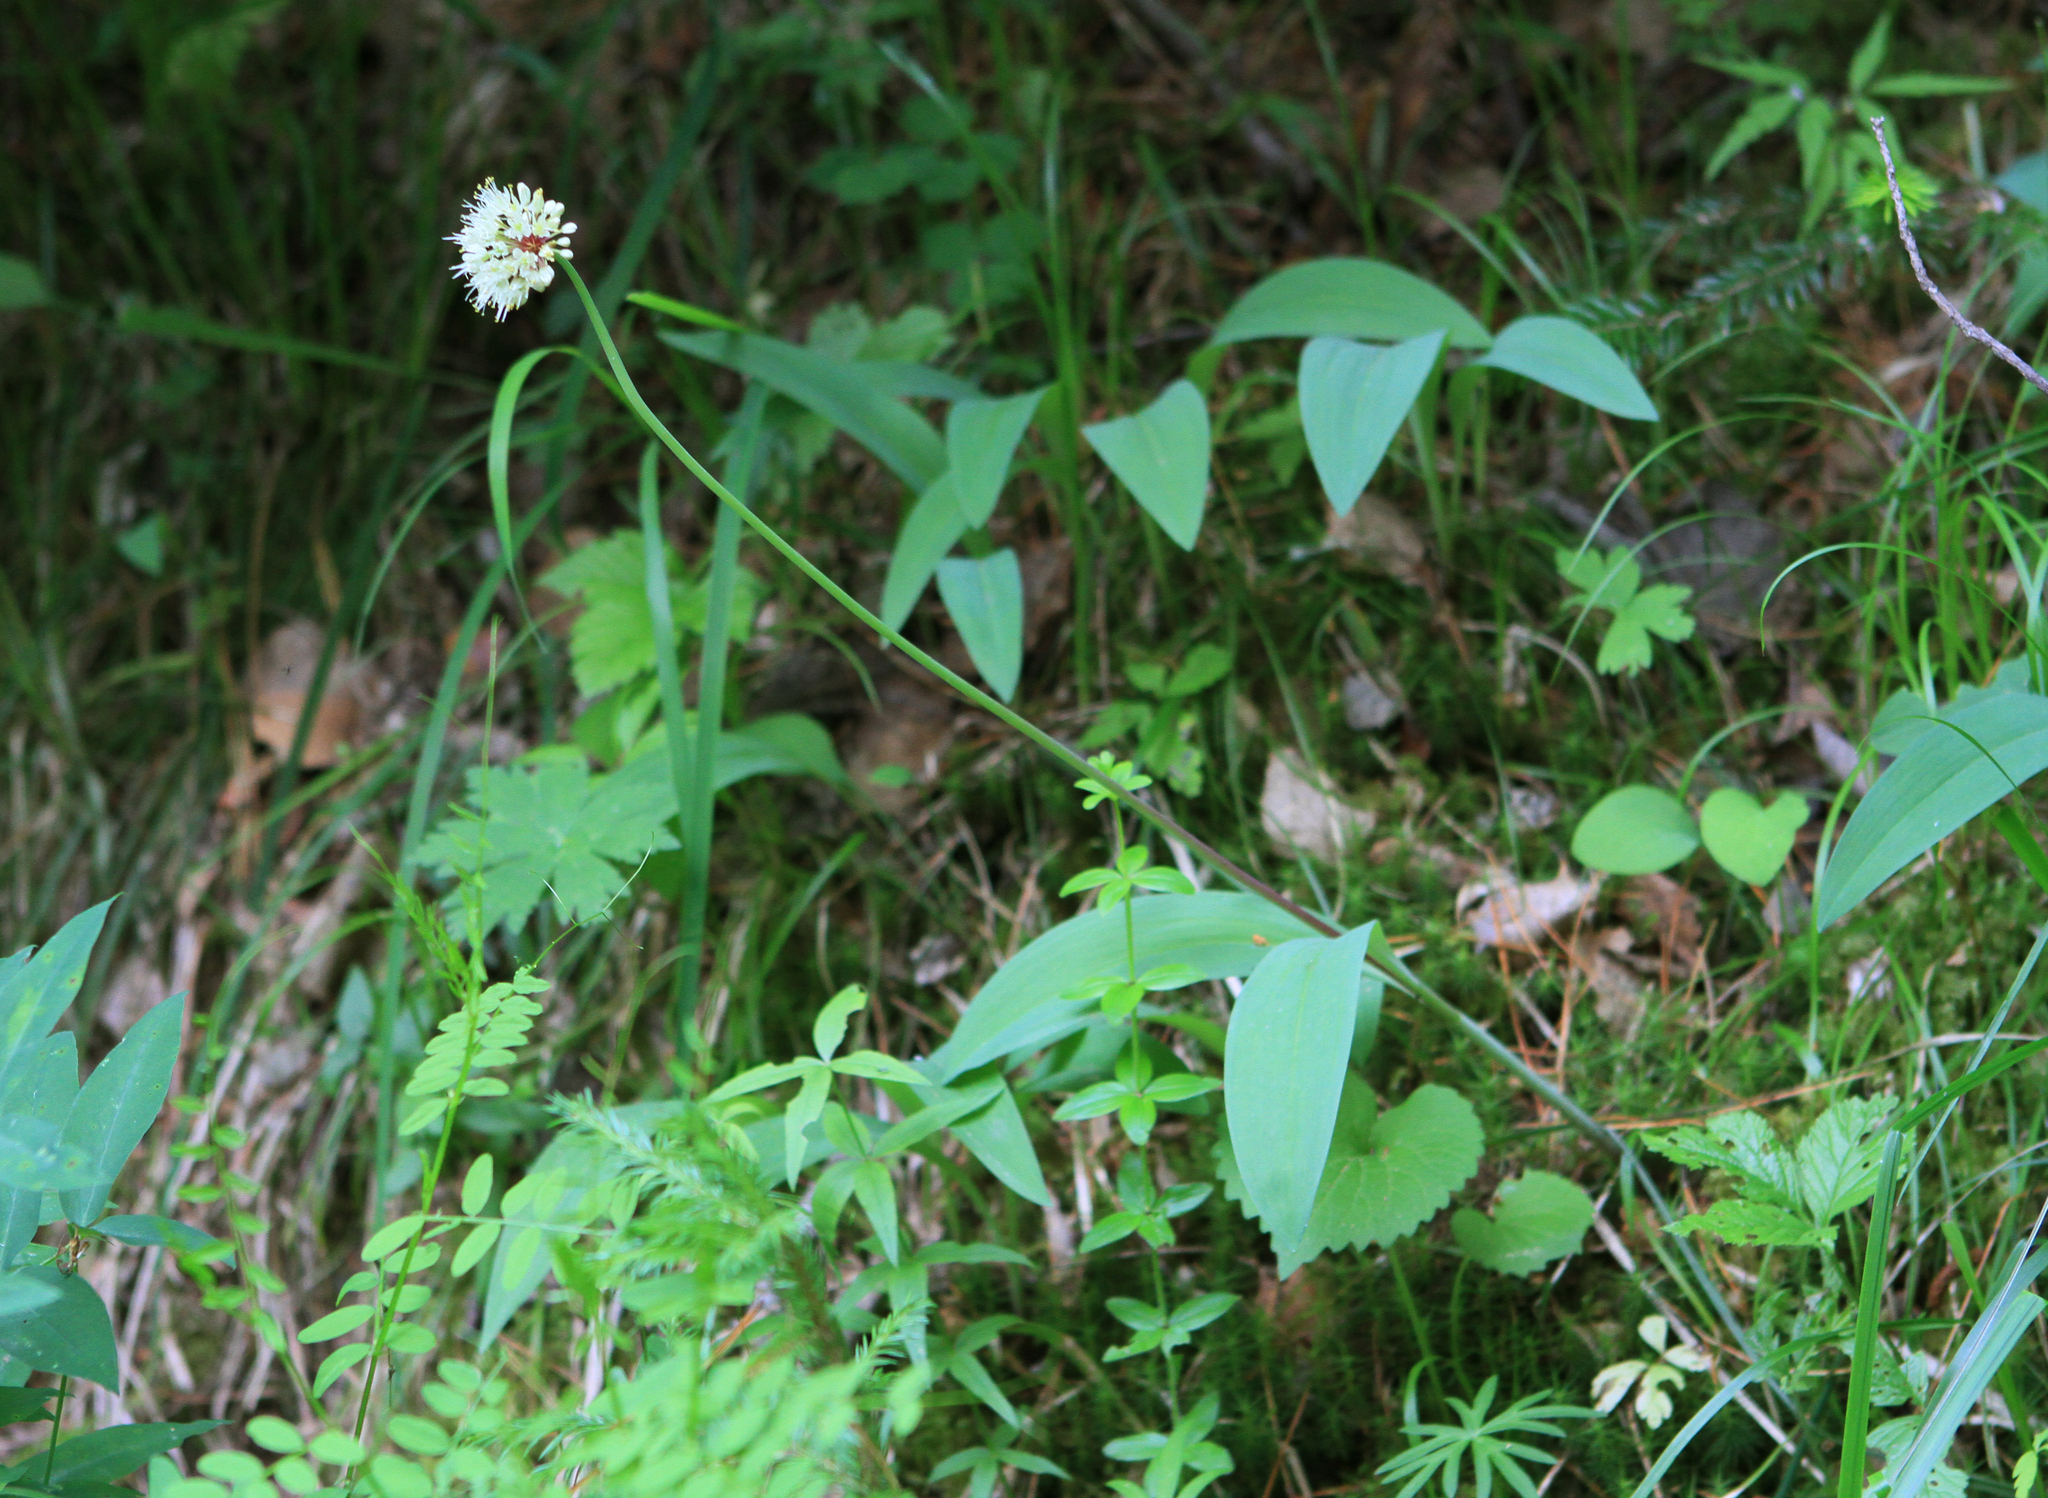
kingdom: Plantae
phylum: Tracheophyta
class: Liliopsida
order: Asparagales
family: Amaryllidaceae
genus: Allium
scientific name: Allium microdictyon
